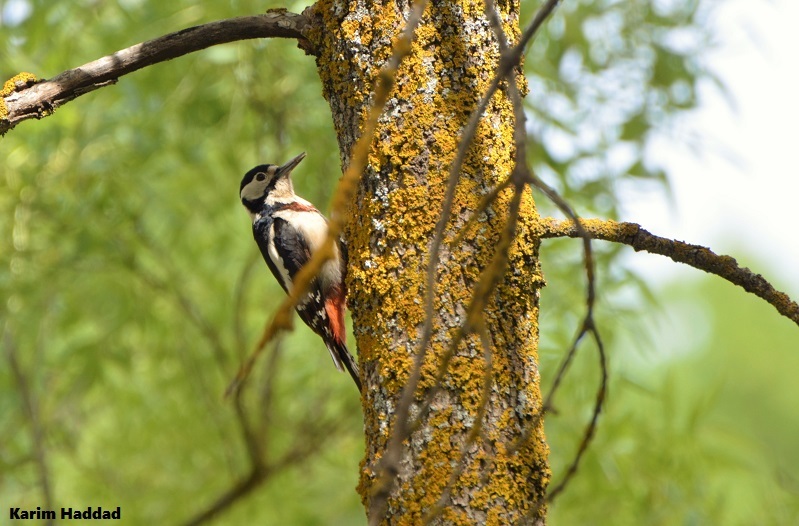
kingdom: Animalia
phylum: Chordata
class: Aves
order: Piciformes
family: Picidae
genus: Dendrocopos
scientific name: Dendrocopos major
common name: Great spotted woodpecker
